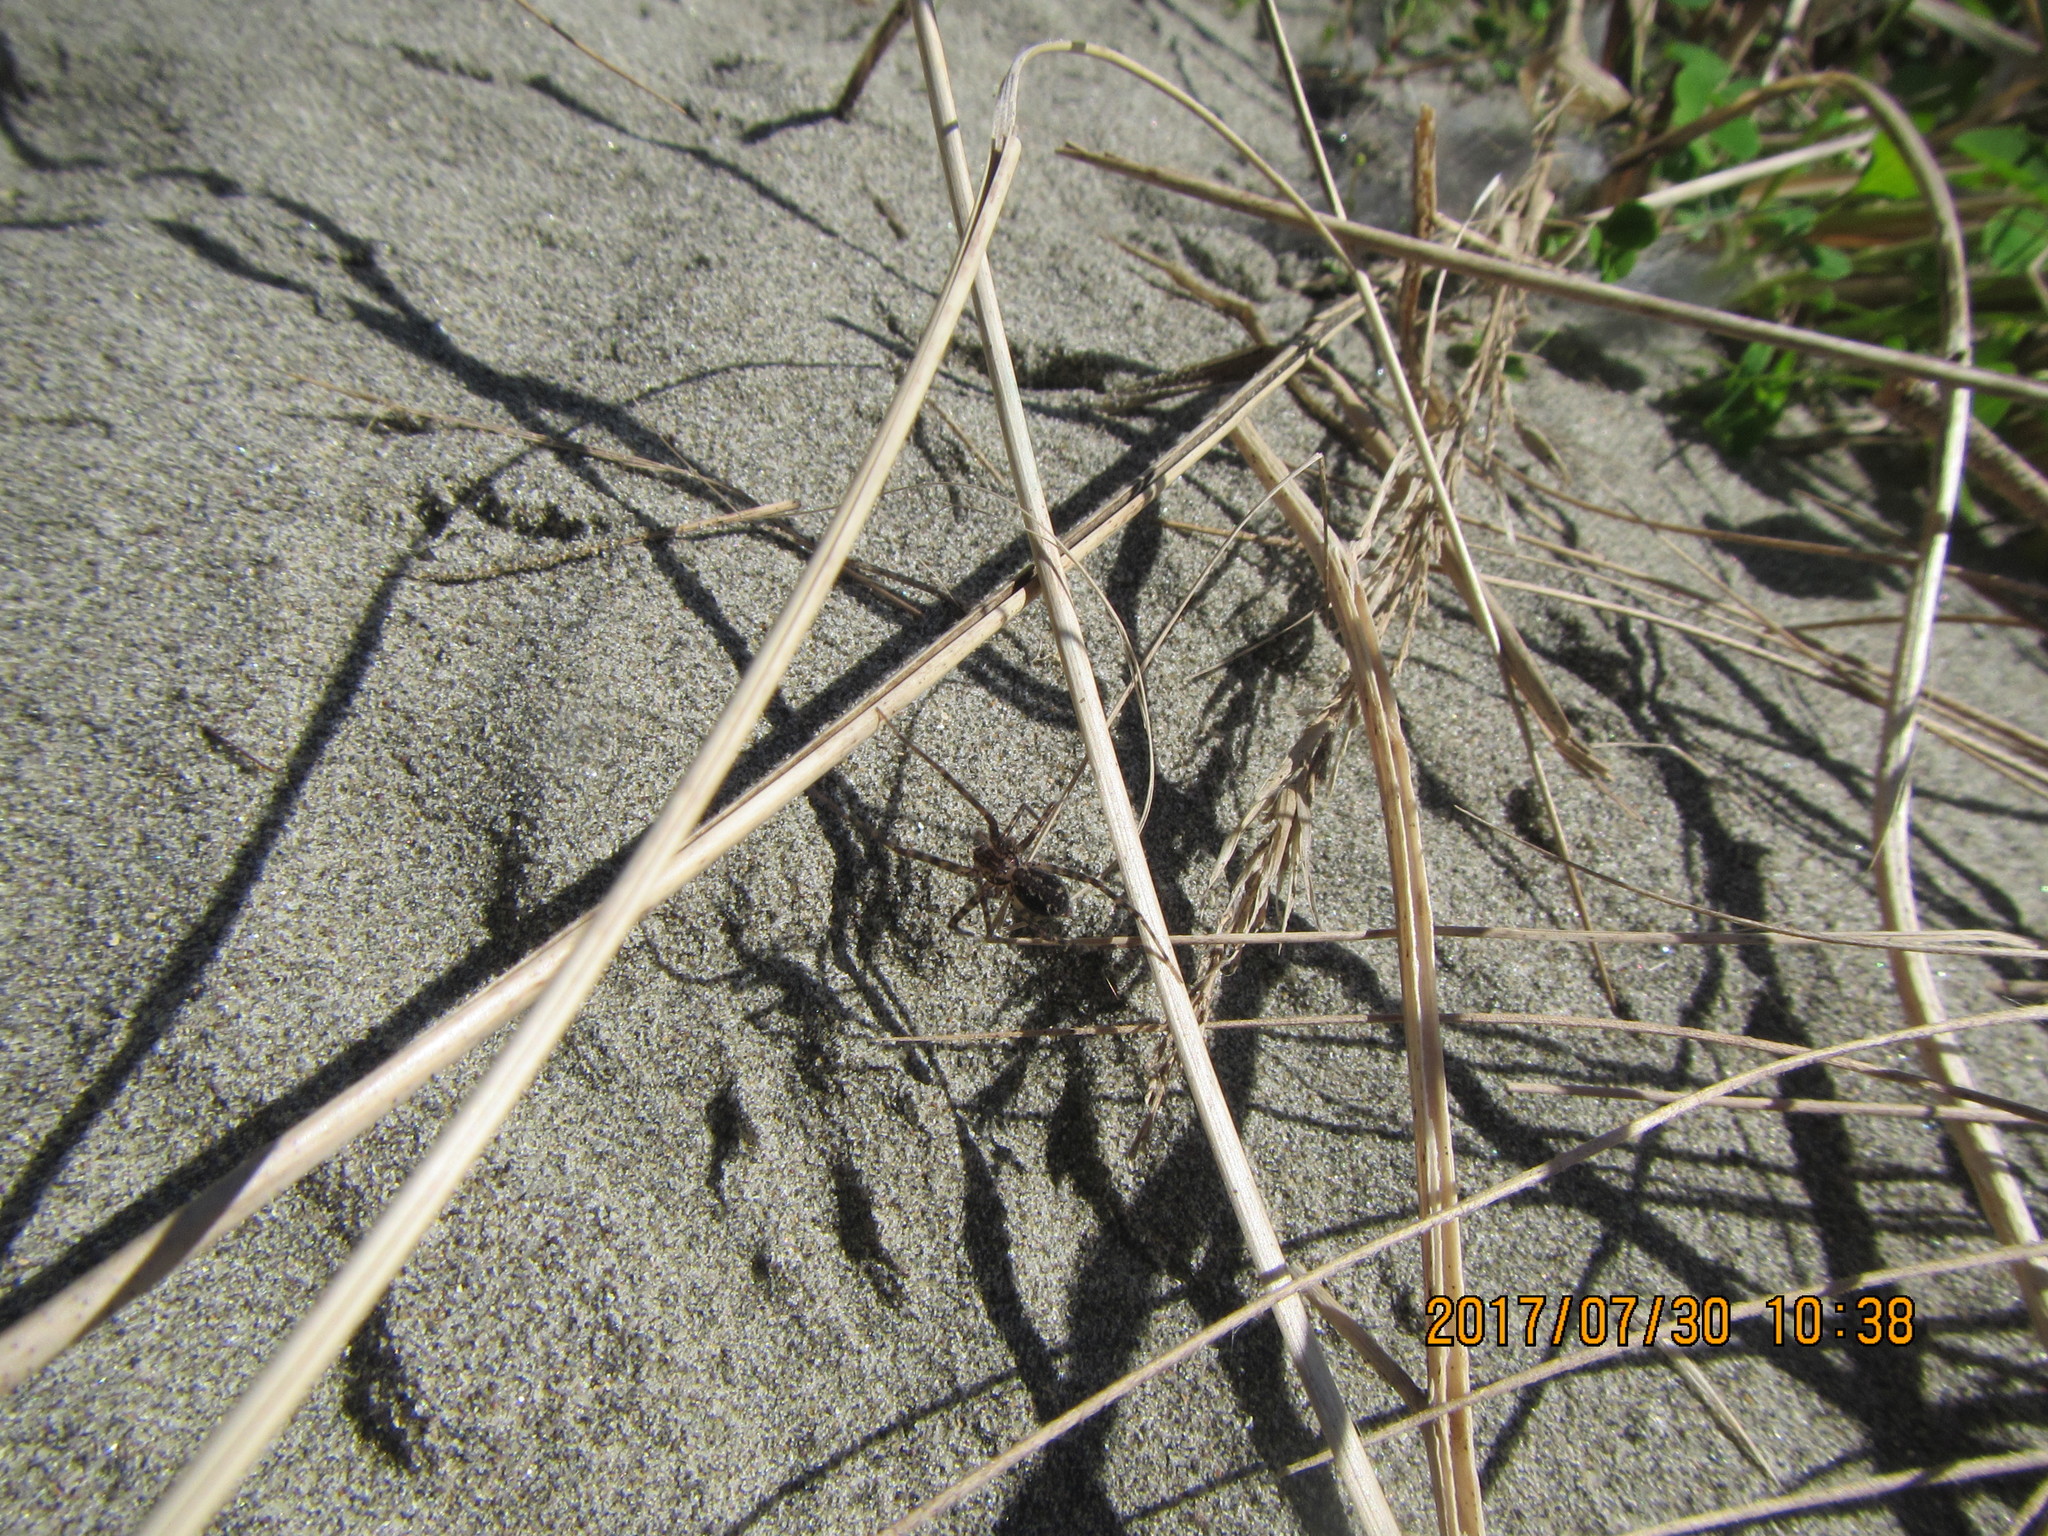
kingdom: Animalia
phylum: Arthropoda
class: Arachnida
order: Araneae
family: Stiphidiidae
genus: Stiphidion
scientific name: Stiphidion facetum
